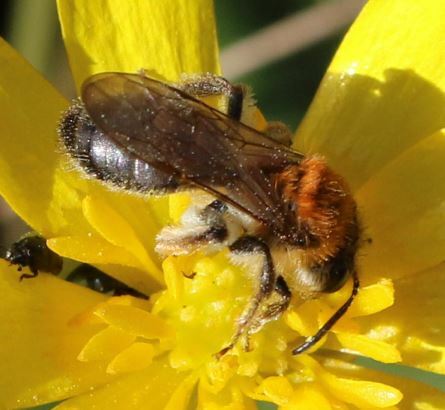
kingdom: Animalia
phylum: Arthropoda
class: Insecta
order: Hymenoptera
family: Andrenidae
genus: Andrena
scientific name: Andrena haemorrhoa
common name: Early mining bee
